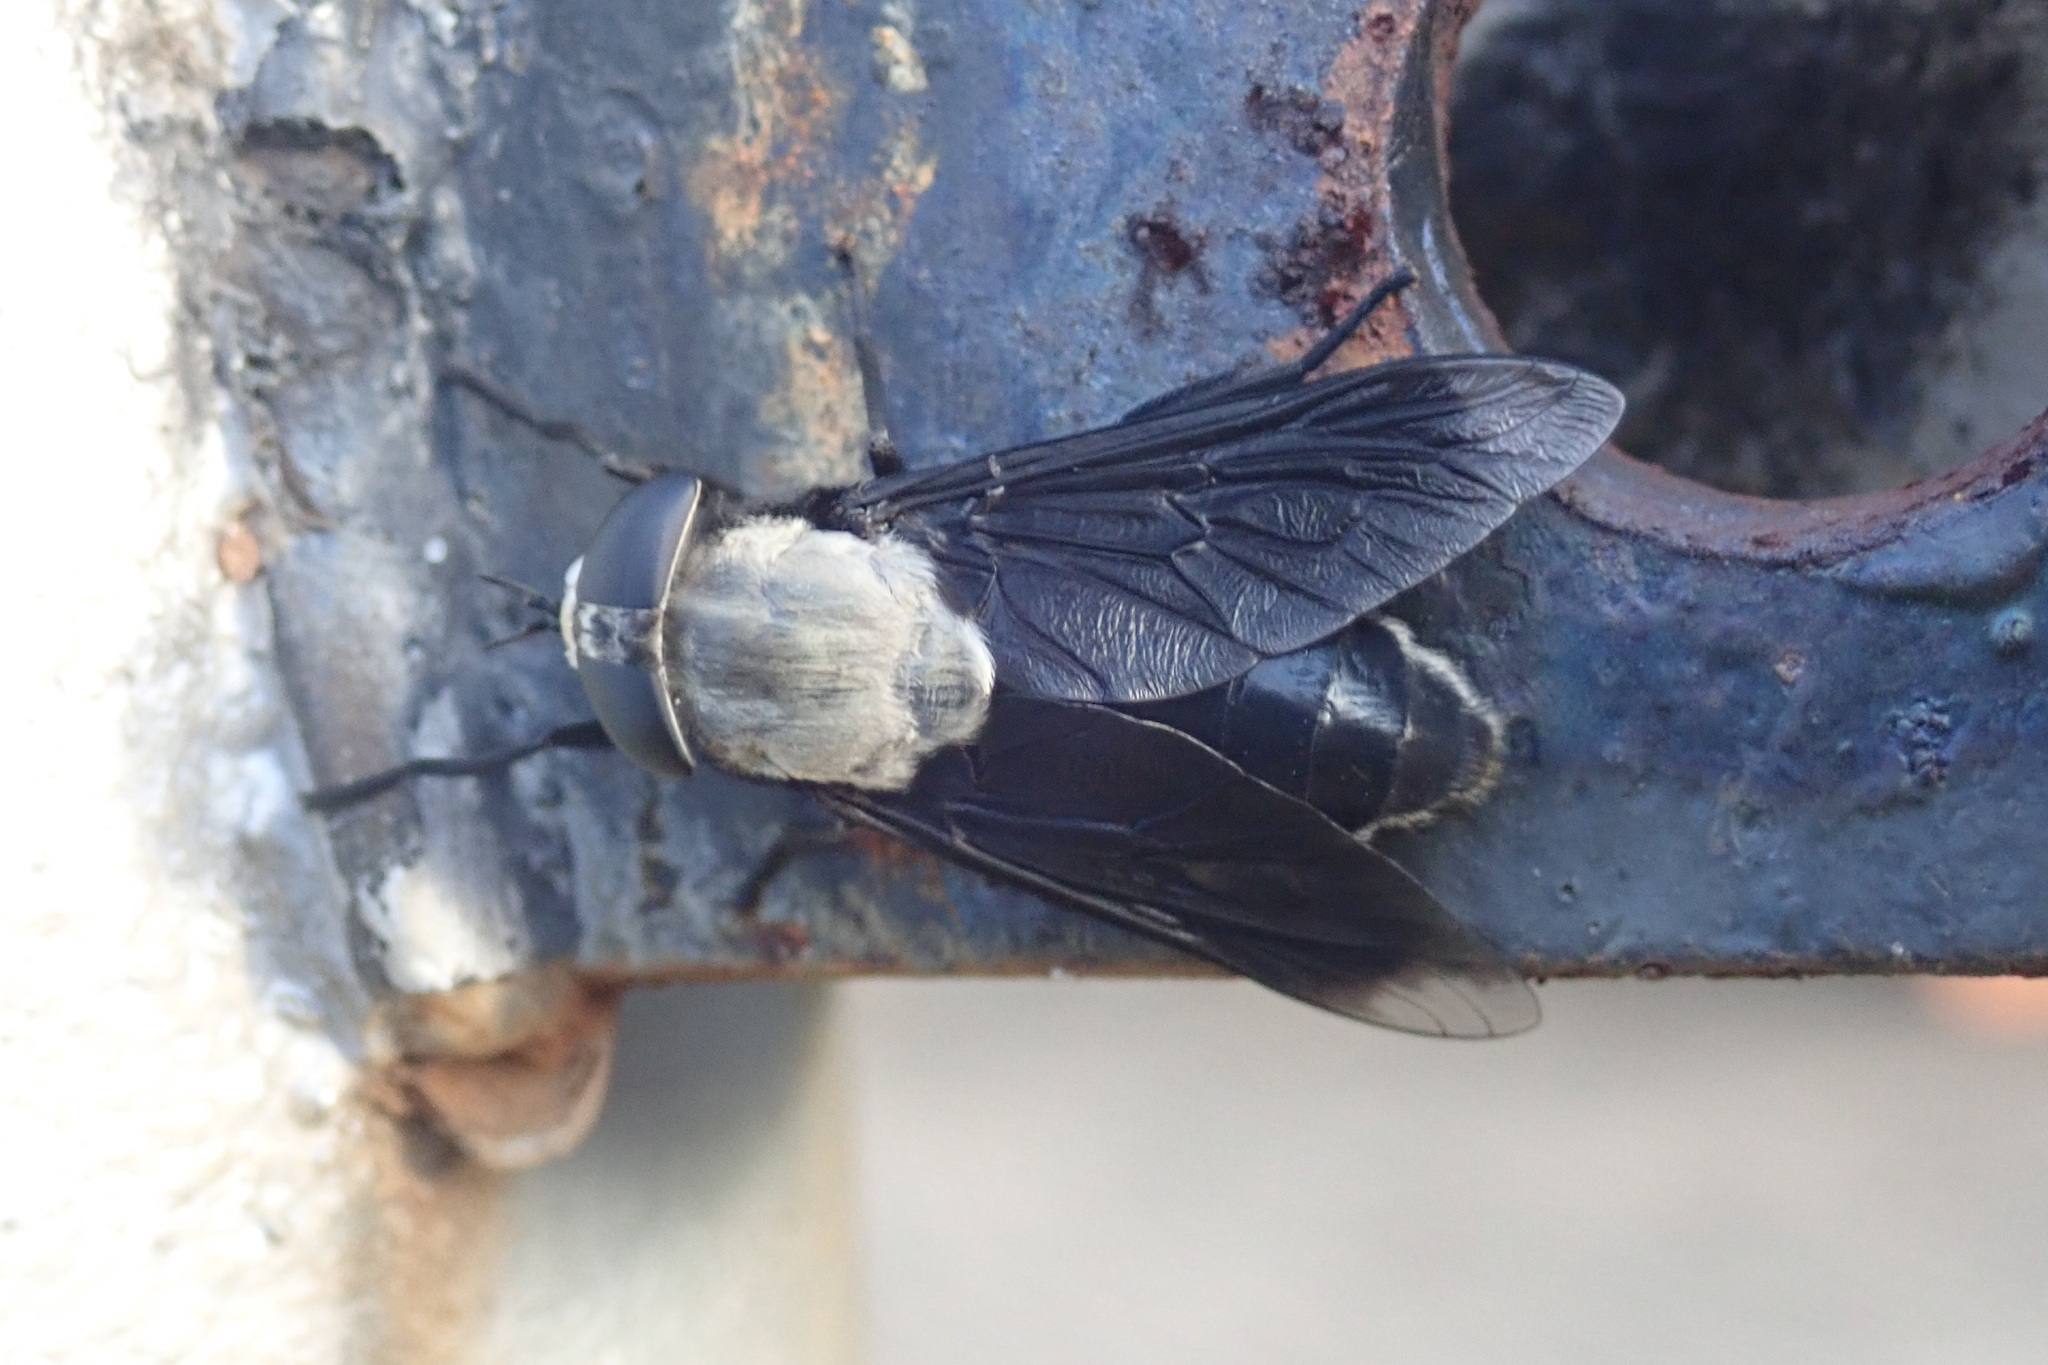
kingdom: Animalia
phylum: Arthropoda
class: Insecta
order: Diptera
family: Tabanidae
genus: Tabanus
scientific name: Tabanus biguttatus
